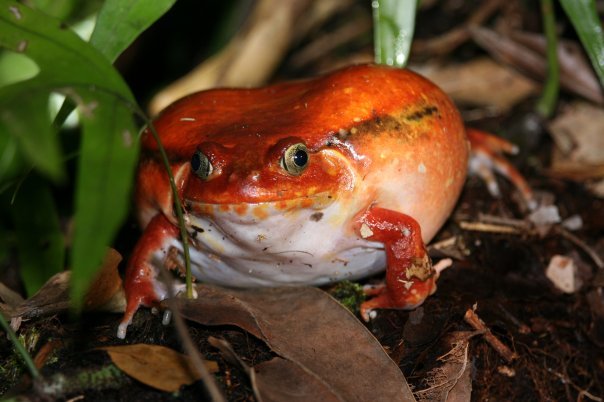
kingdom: Animalia
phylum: Chordata
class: Amphibia
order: Anura
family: Microhylidae
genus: Dyscophus
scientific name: Dyscophus antongilii
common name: Tomato frog
